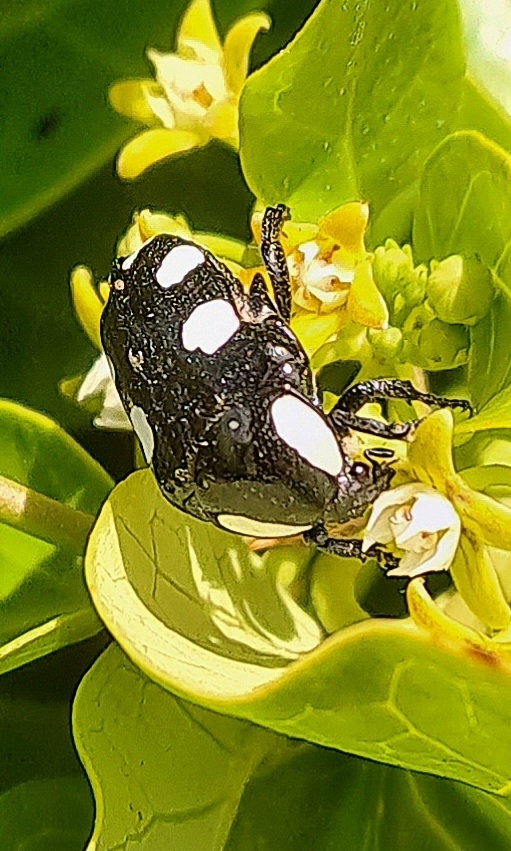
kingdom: Animalia
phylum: Arthropoda
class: Insecta
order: Coleoptera
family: Scarabaeidae
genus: Mausoleopsis
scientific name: Mausoleopsis amabilis
